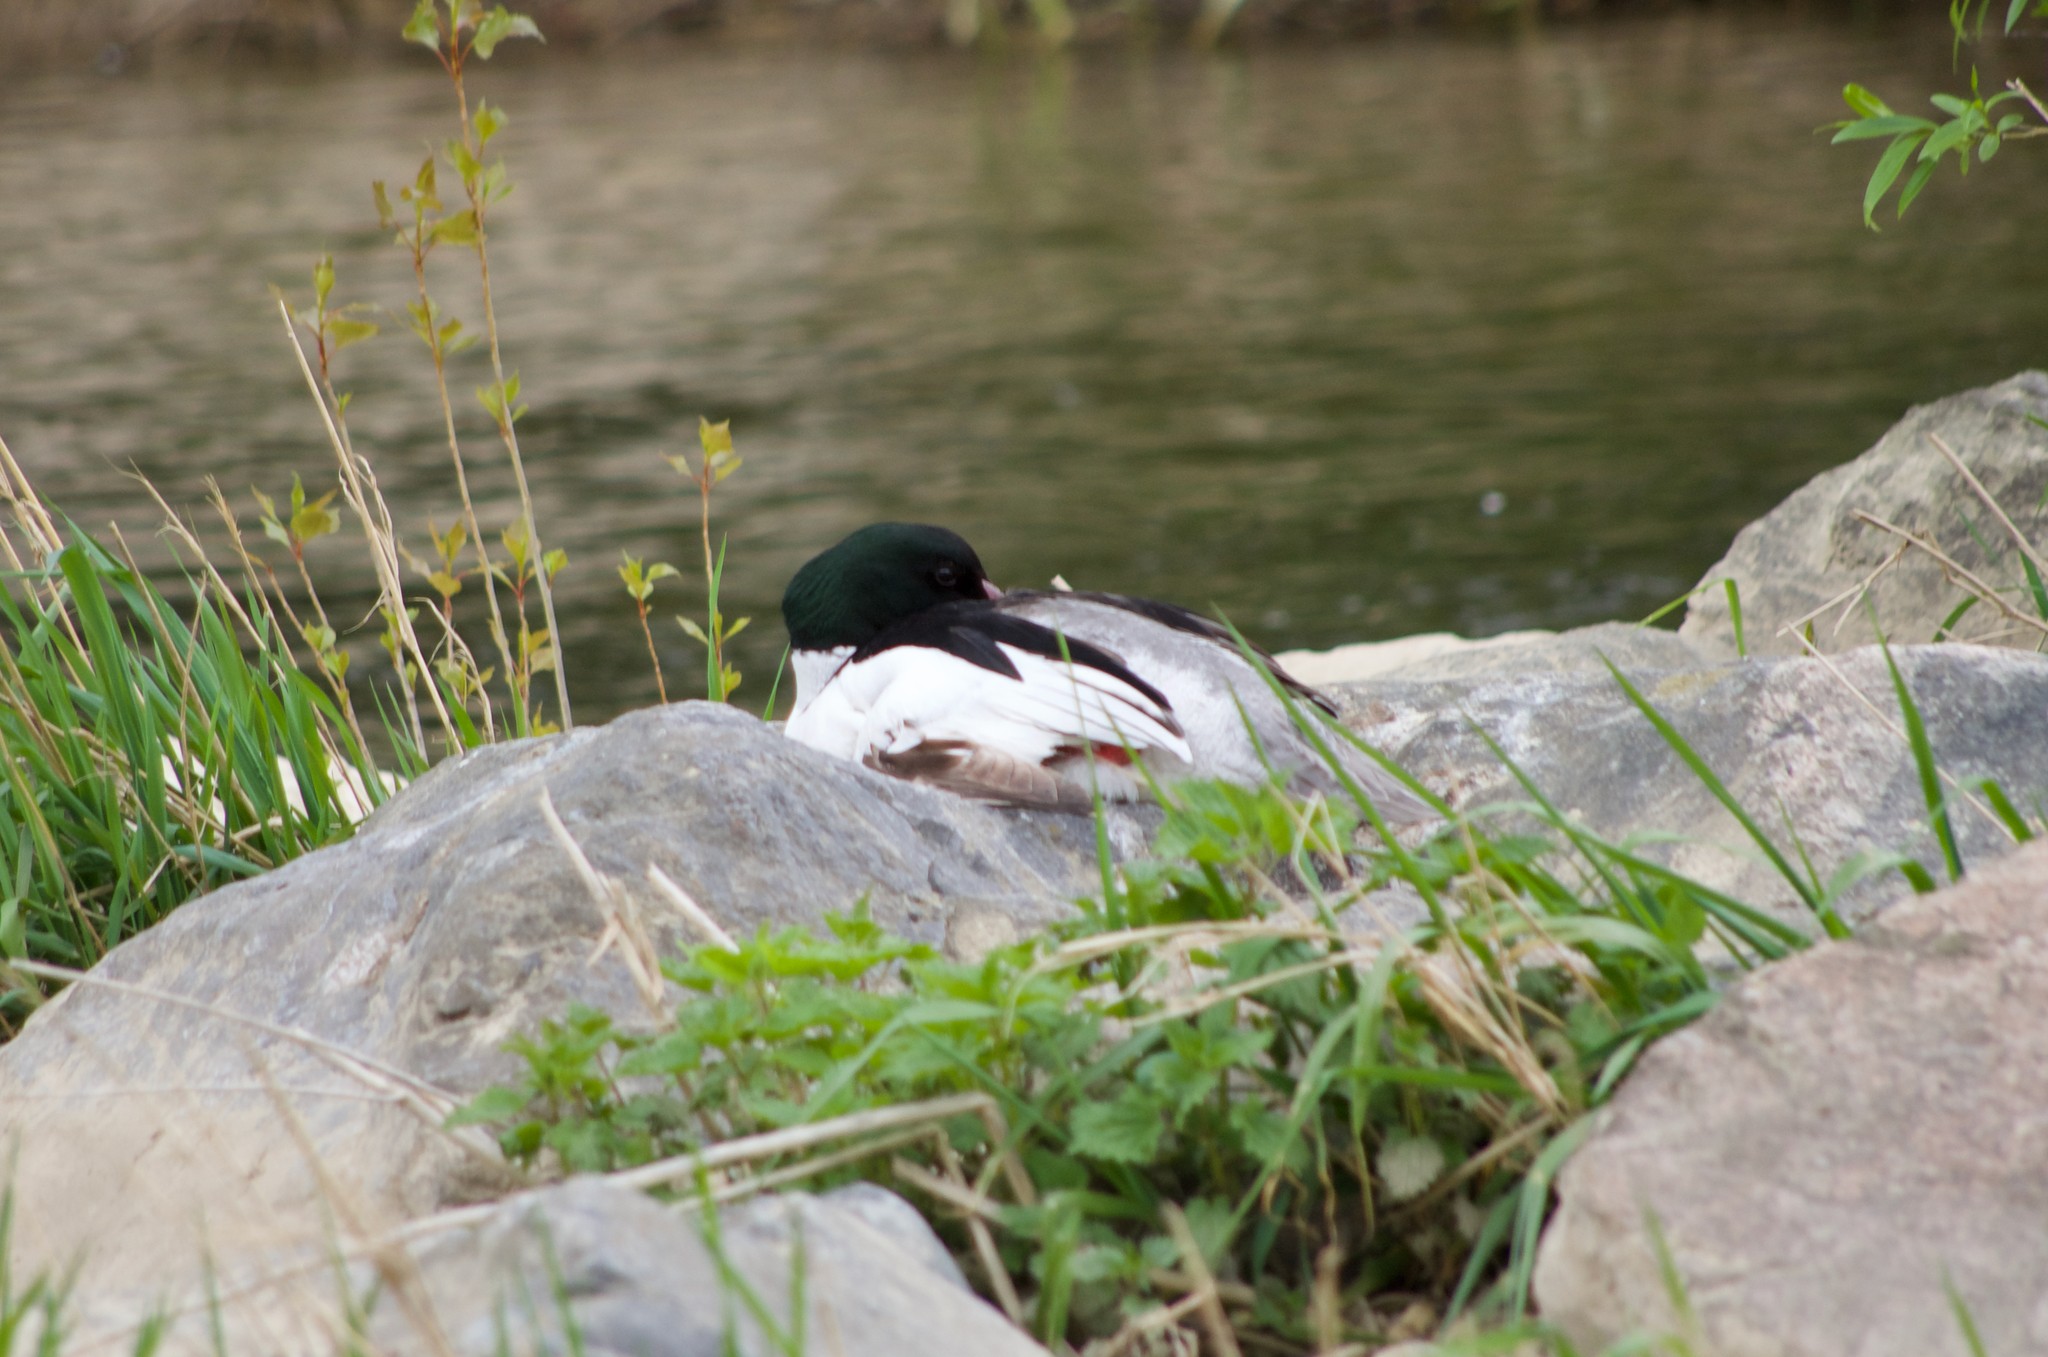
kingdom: Animalia
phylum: Chordata
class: Aves
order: Anseriformes
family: Anatidae
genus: Mergus
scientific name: Mergus merganser
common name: Common merganser
